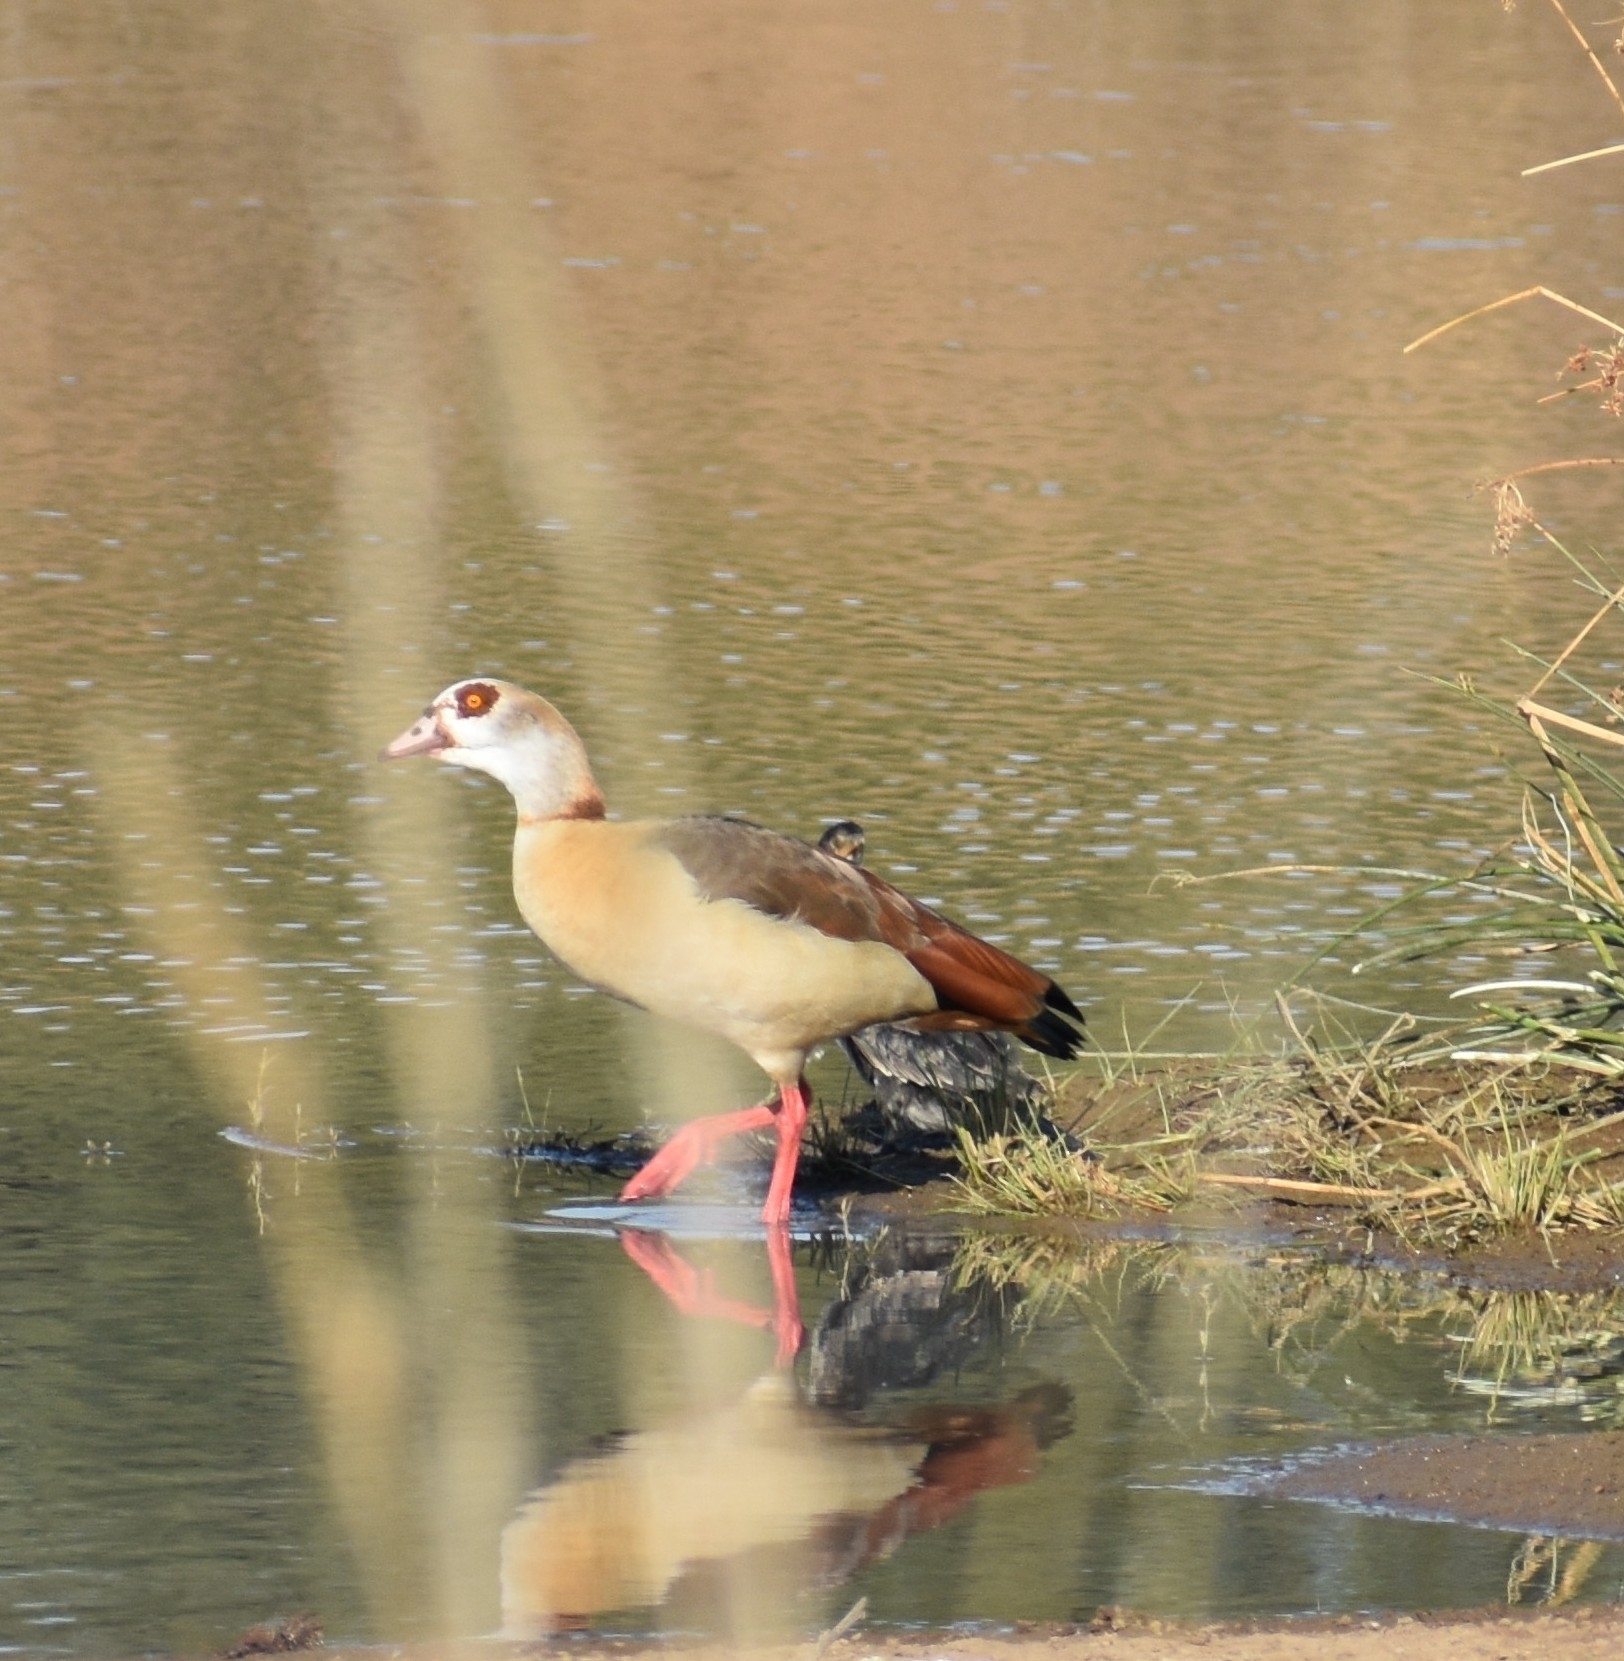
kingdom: Animalia
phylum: Chordata
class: Aves
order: Anseriformes
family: Anatidae
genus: Alopochen
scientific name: Alopochen aegyptiaca
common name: Egyptian goose
